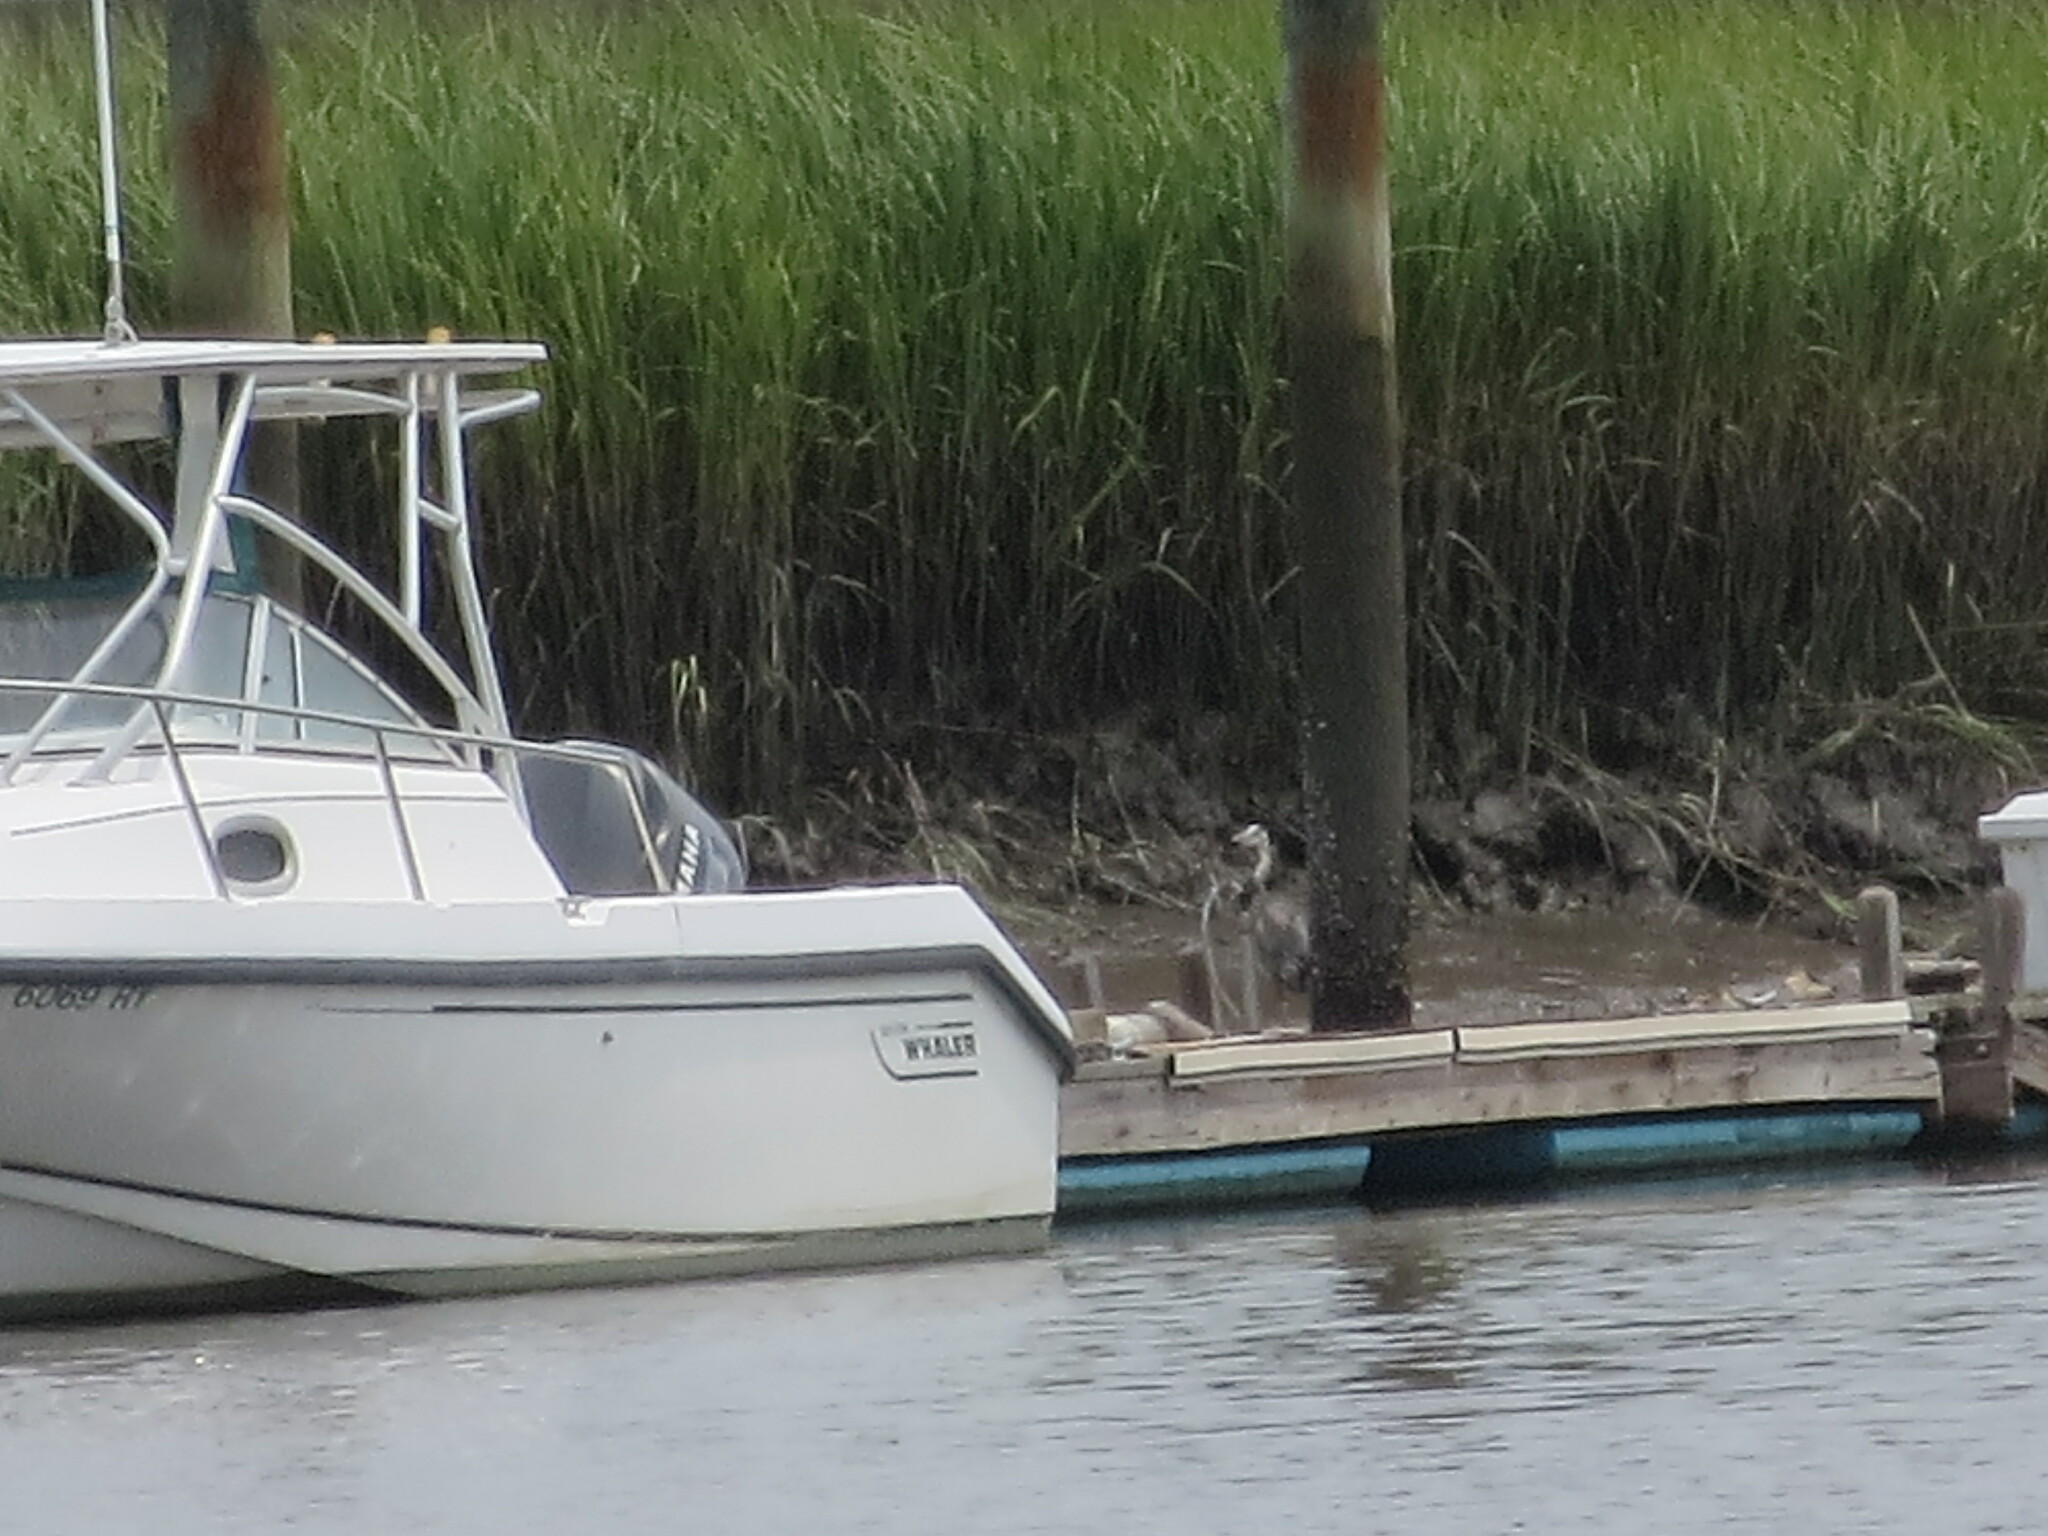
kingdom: Animalia
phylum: Chordata
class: Aves
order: Pelecaniformes
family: Ardeidae
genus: Ardea
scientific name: Ardea herodias
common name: Great blue heron
